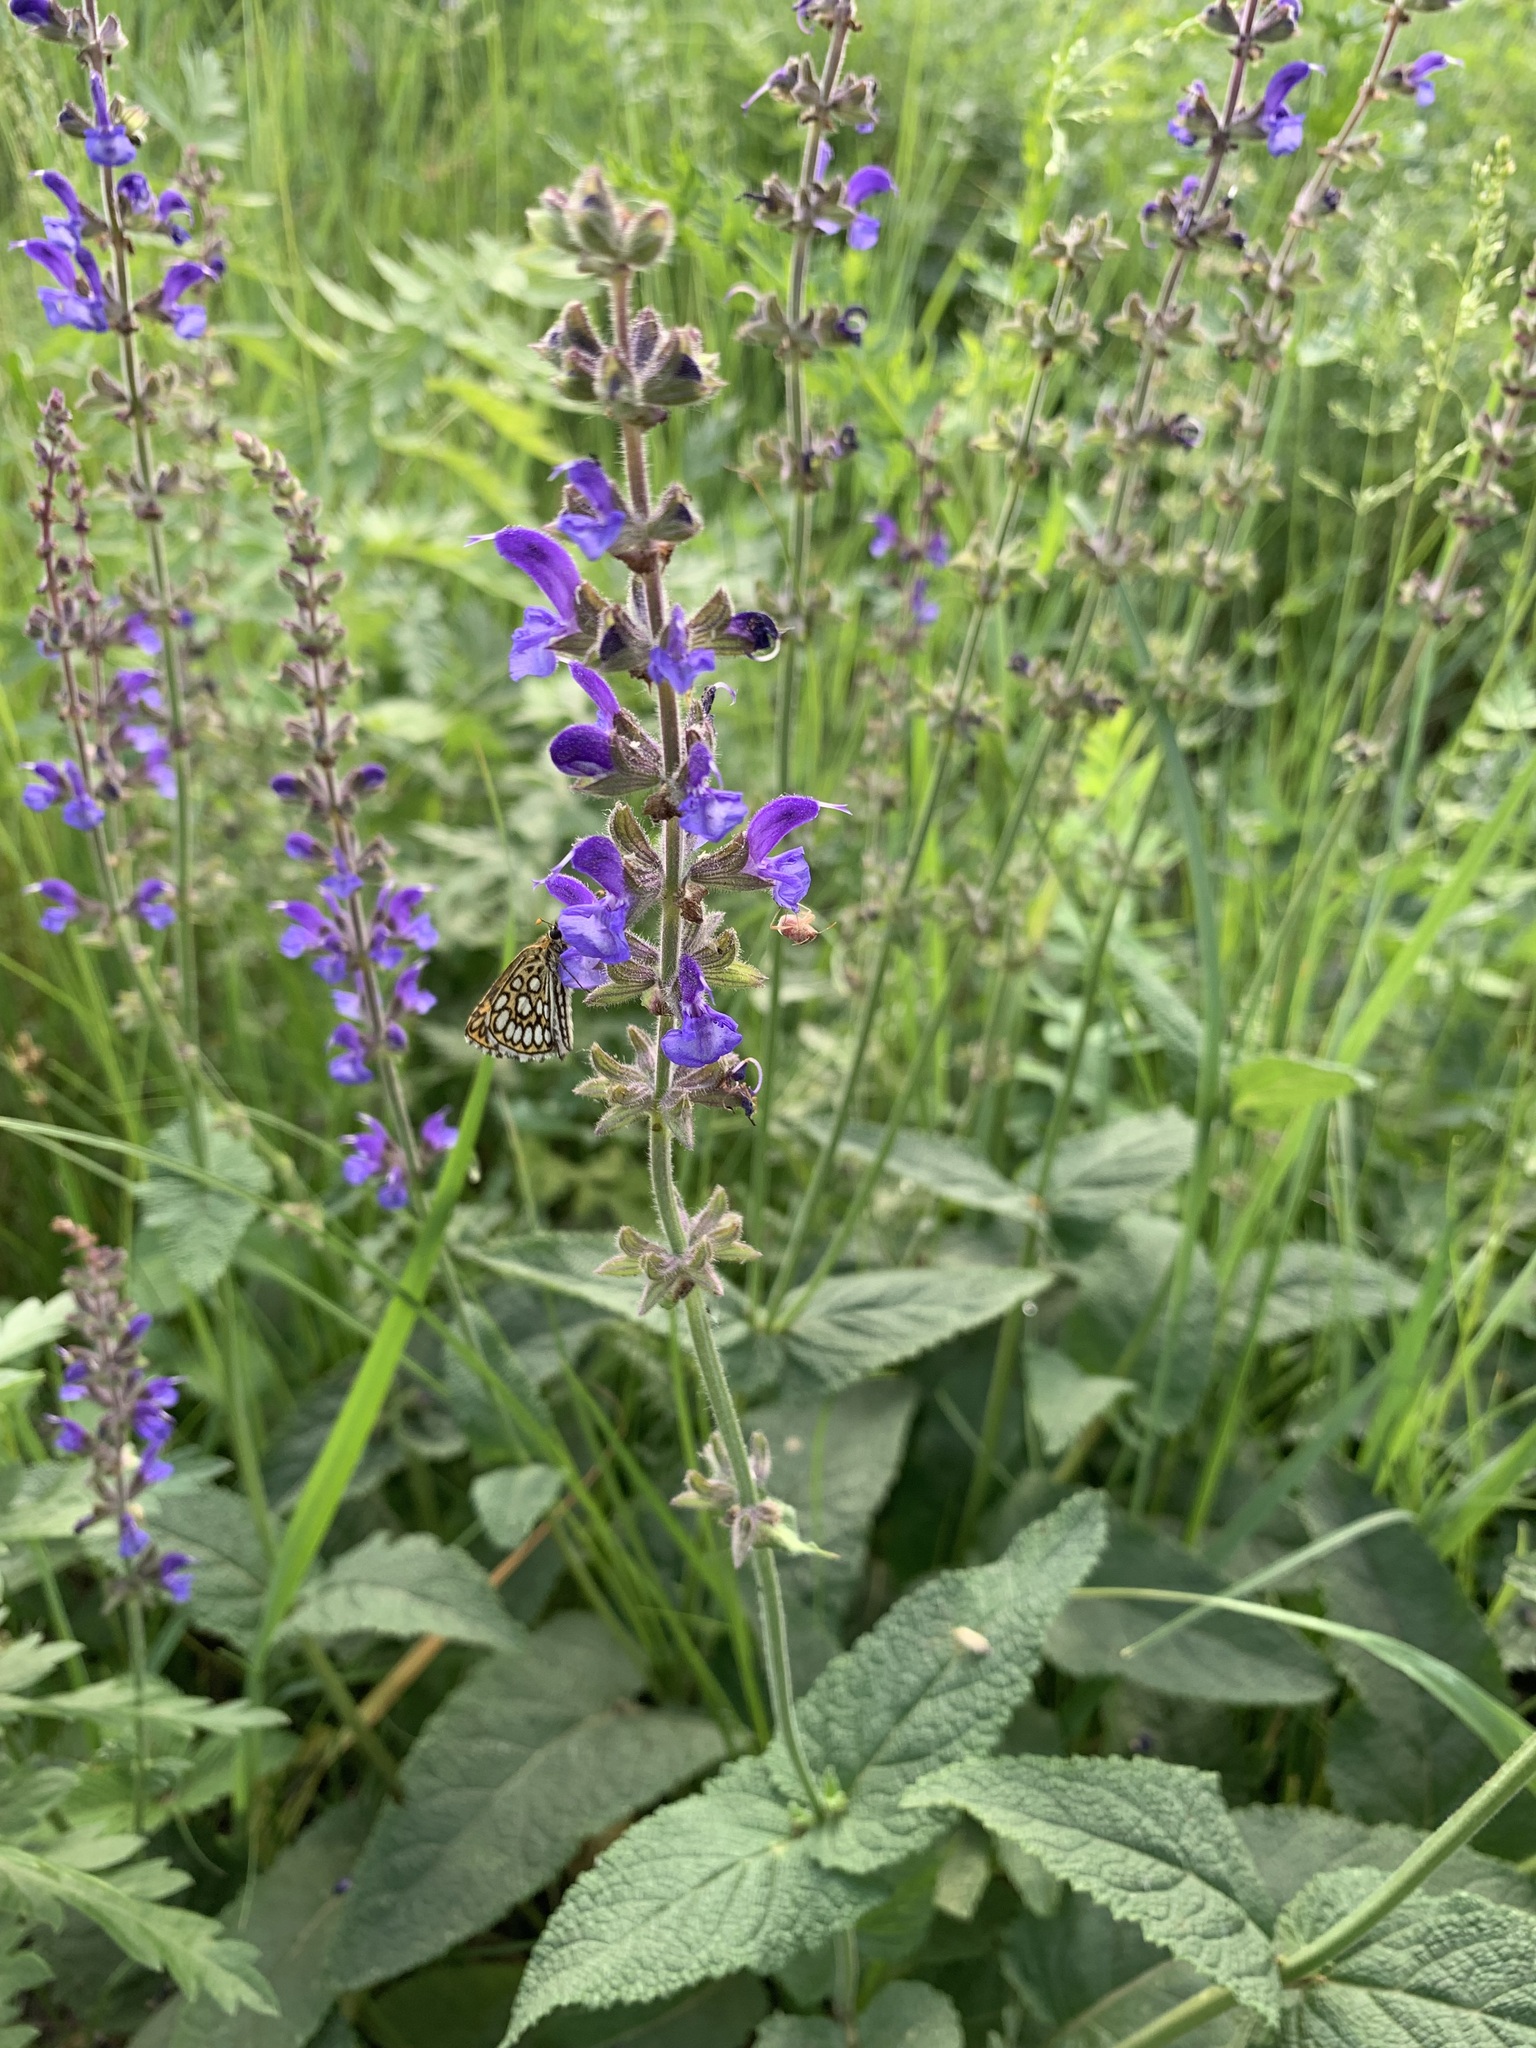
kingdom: Plantae
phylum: Tracheophyta
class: Magnoliopsida
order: Lamiales
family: Lamiaceae
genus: Salvia
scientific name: Salvia dumetorum
